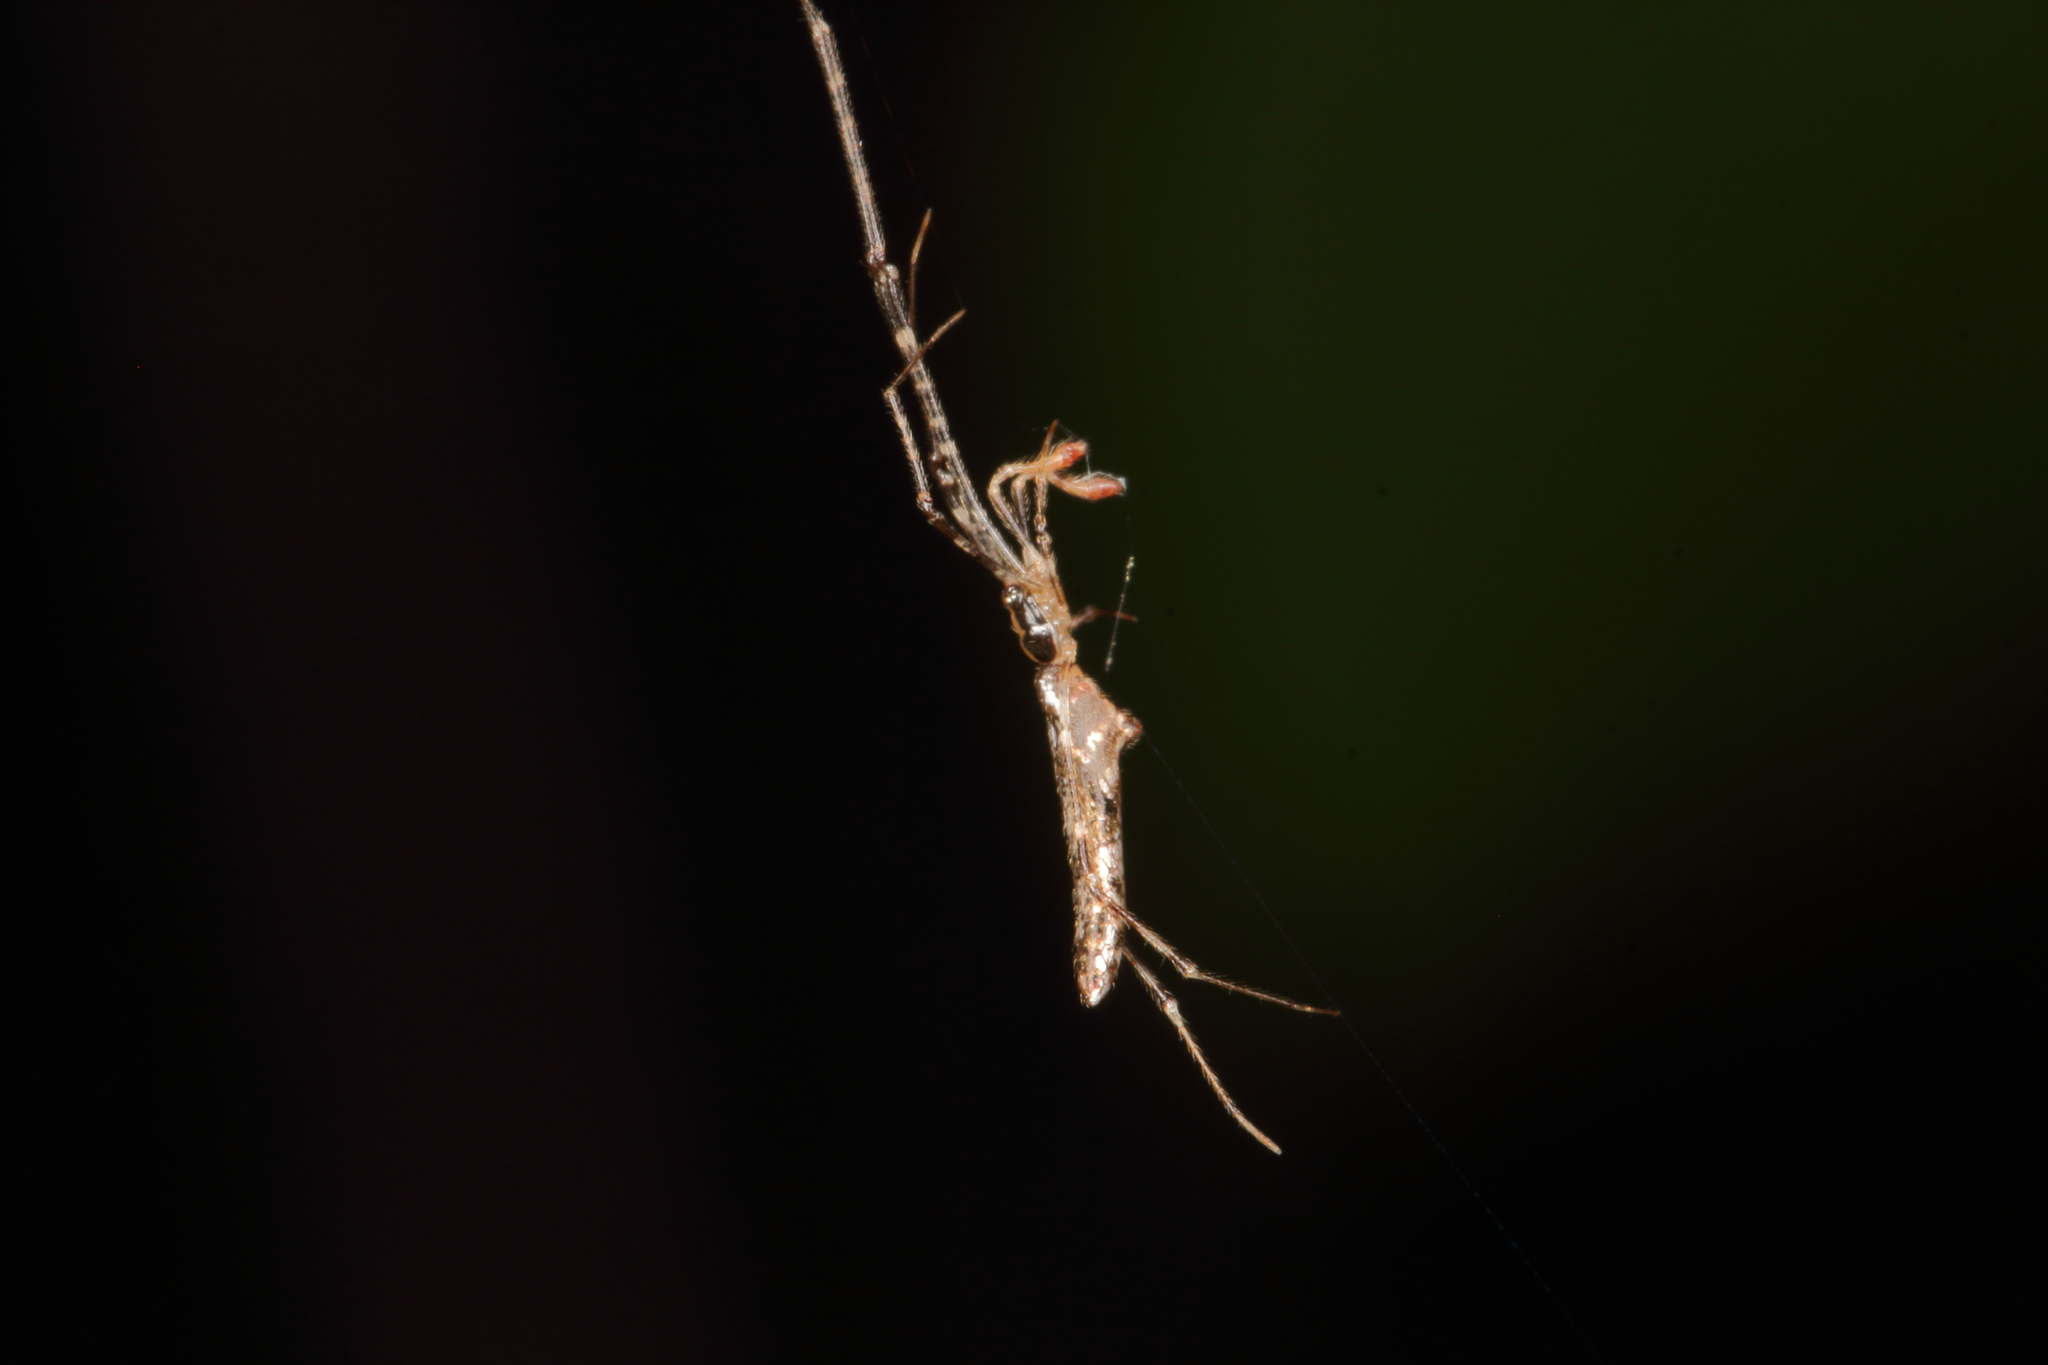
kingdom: Animalia
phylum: Arthropoda
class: Arachnida
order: Araneae
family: Theridiidae
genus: Rhomphaea
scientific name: Rhomphaea urquharti
